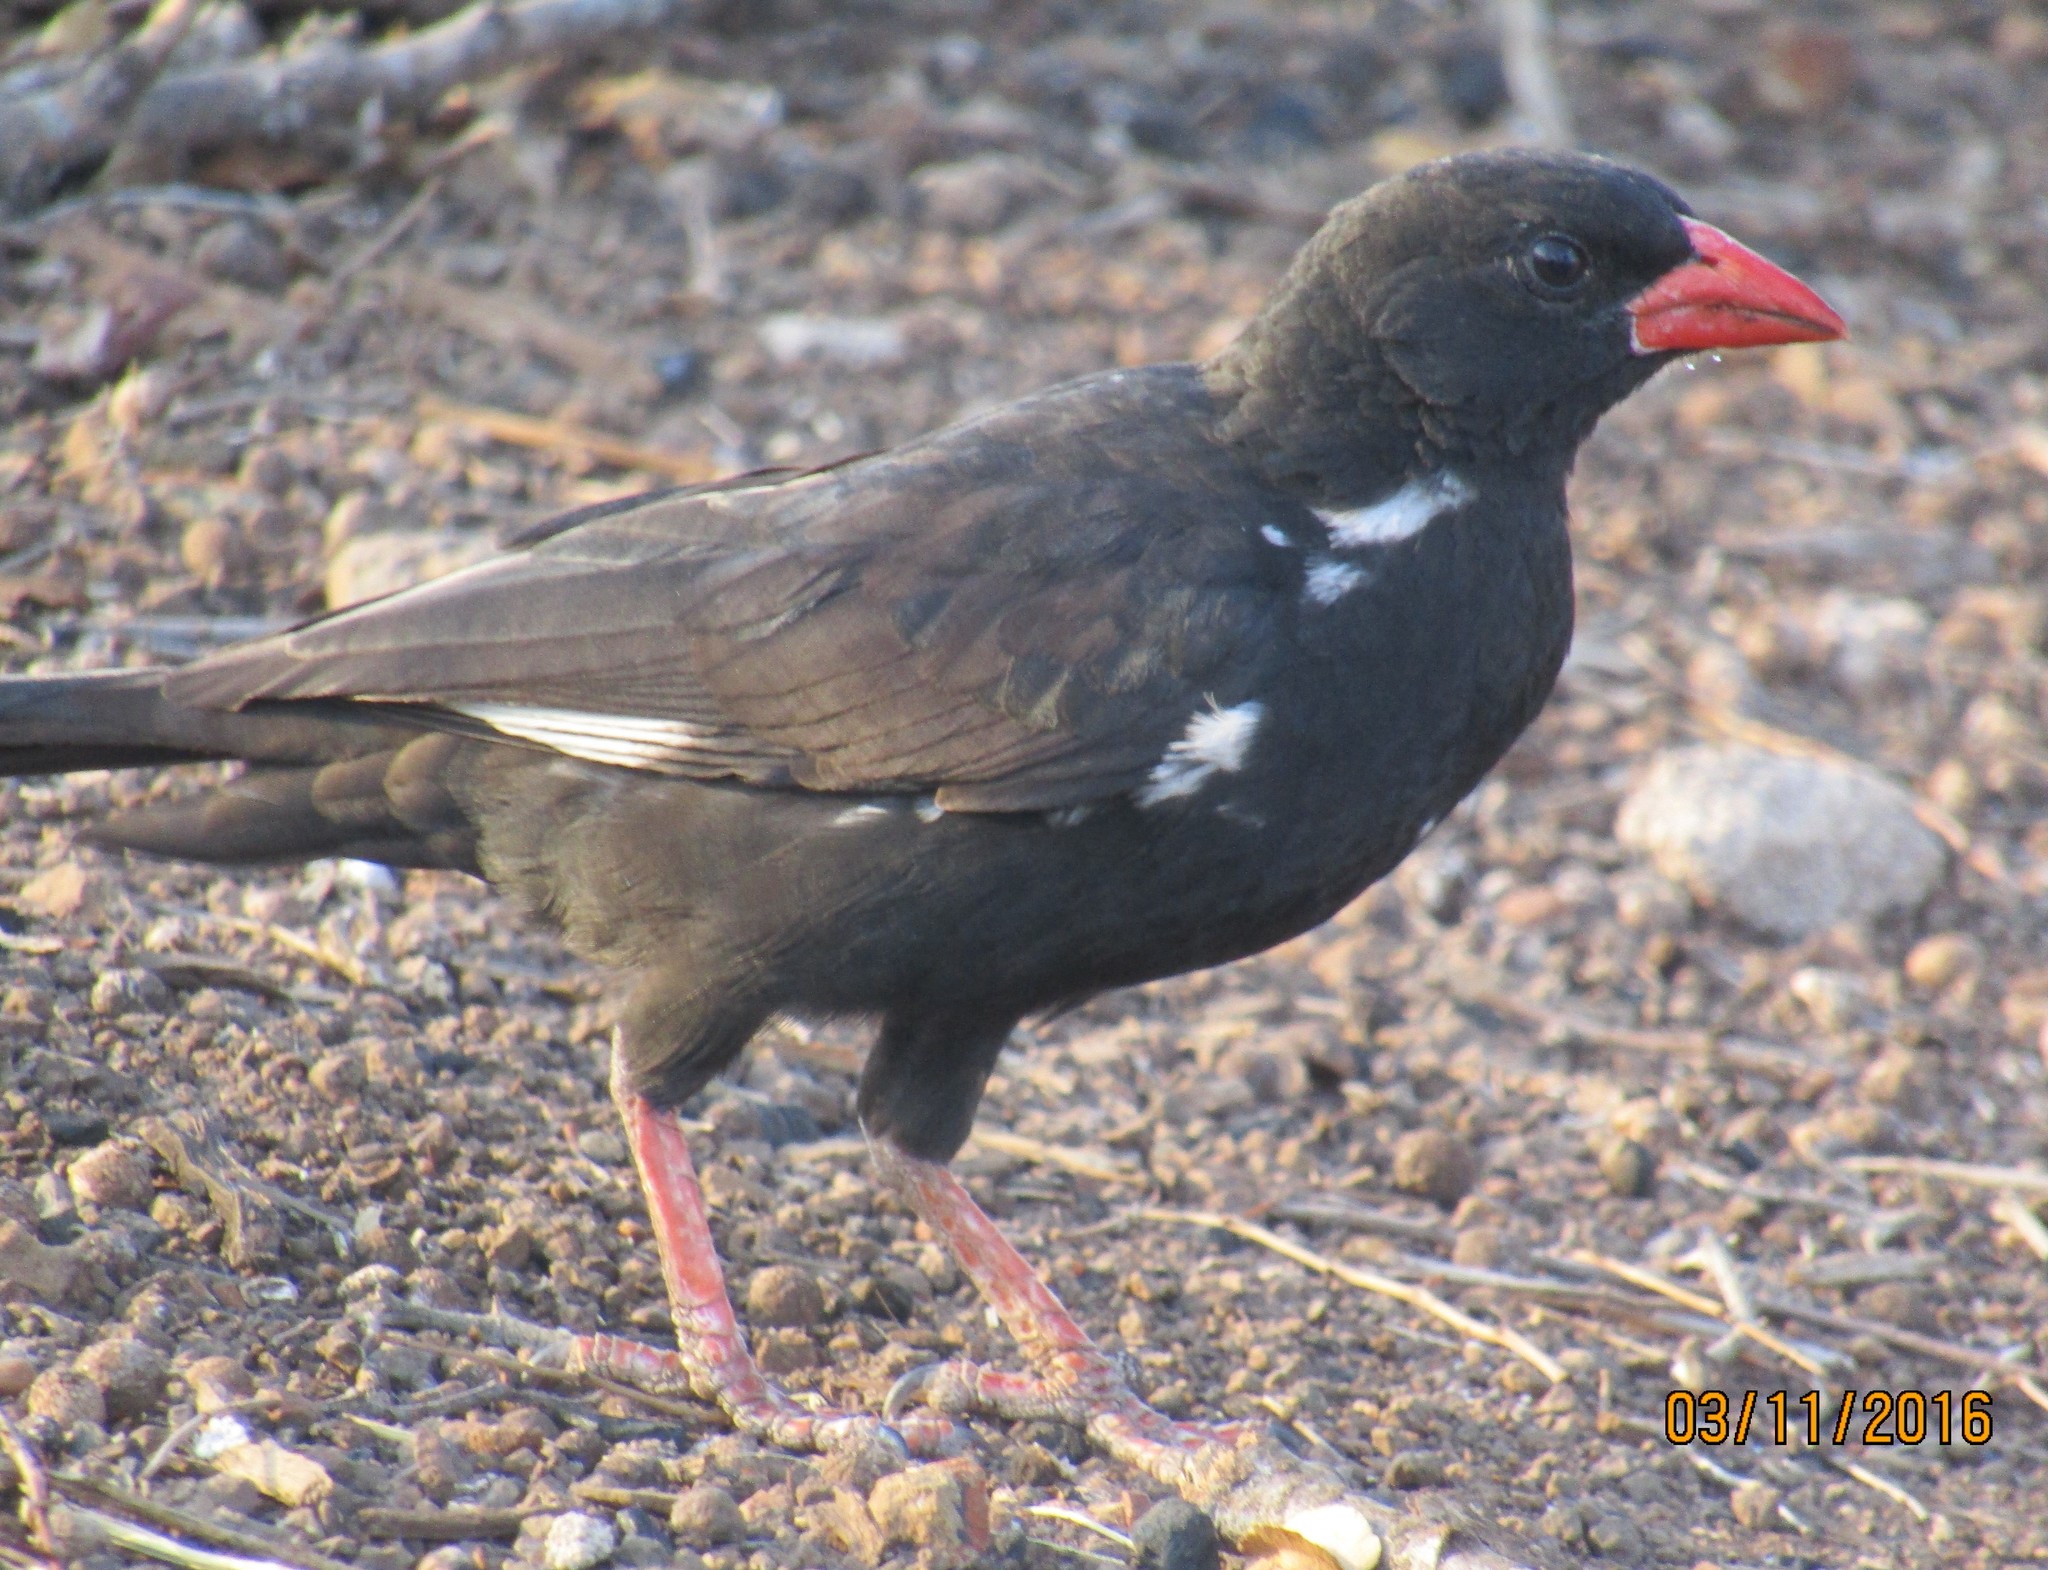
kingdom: Animalia
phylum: Chordata
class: Aves
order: Passeriformes
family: Ploceidae
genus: Bubalornis
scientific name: Bubalornis niger
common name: Red-billed buffalo weaver
